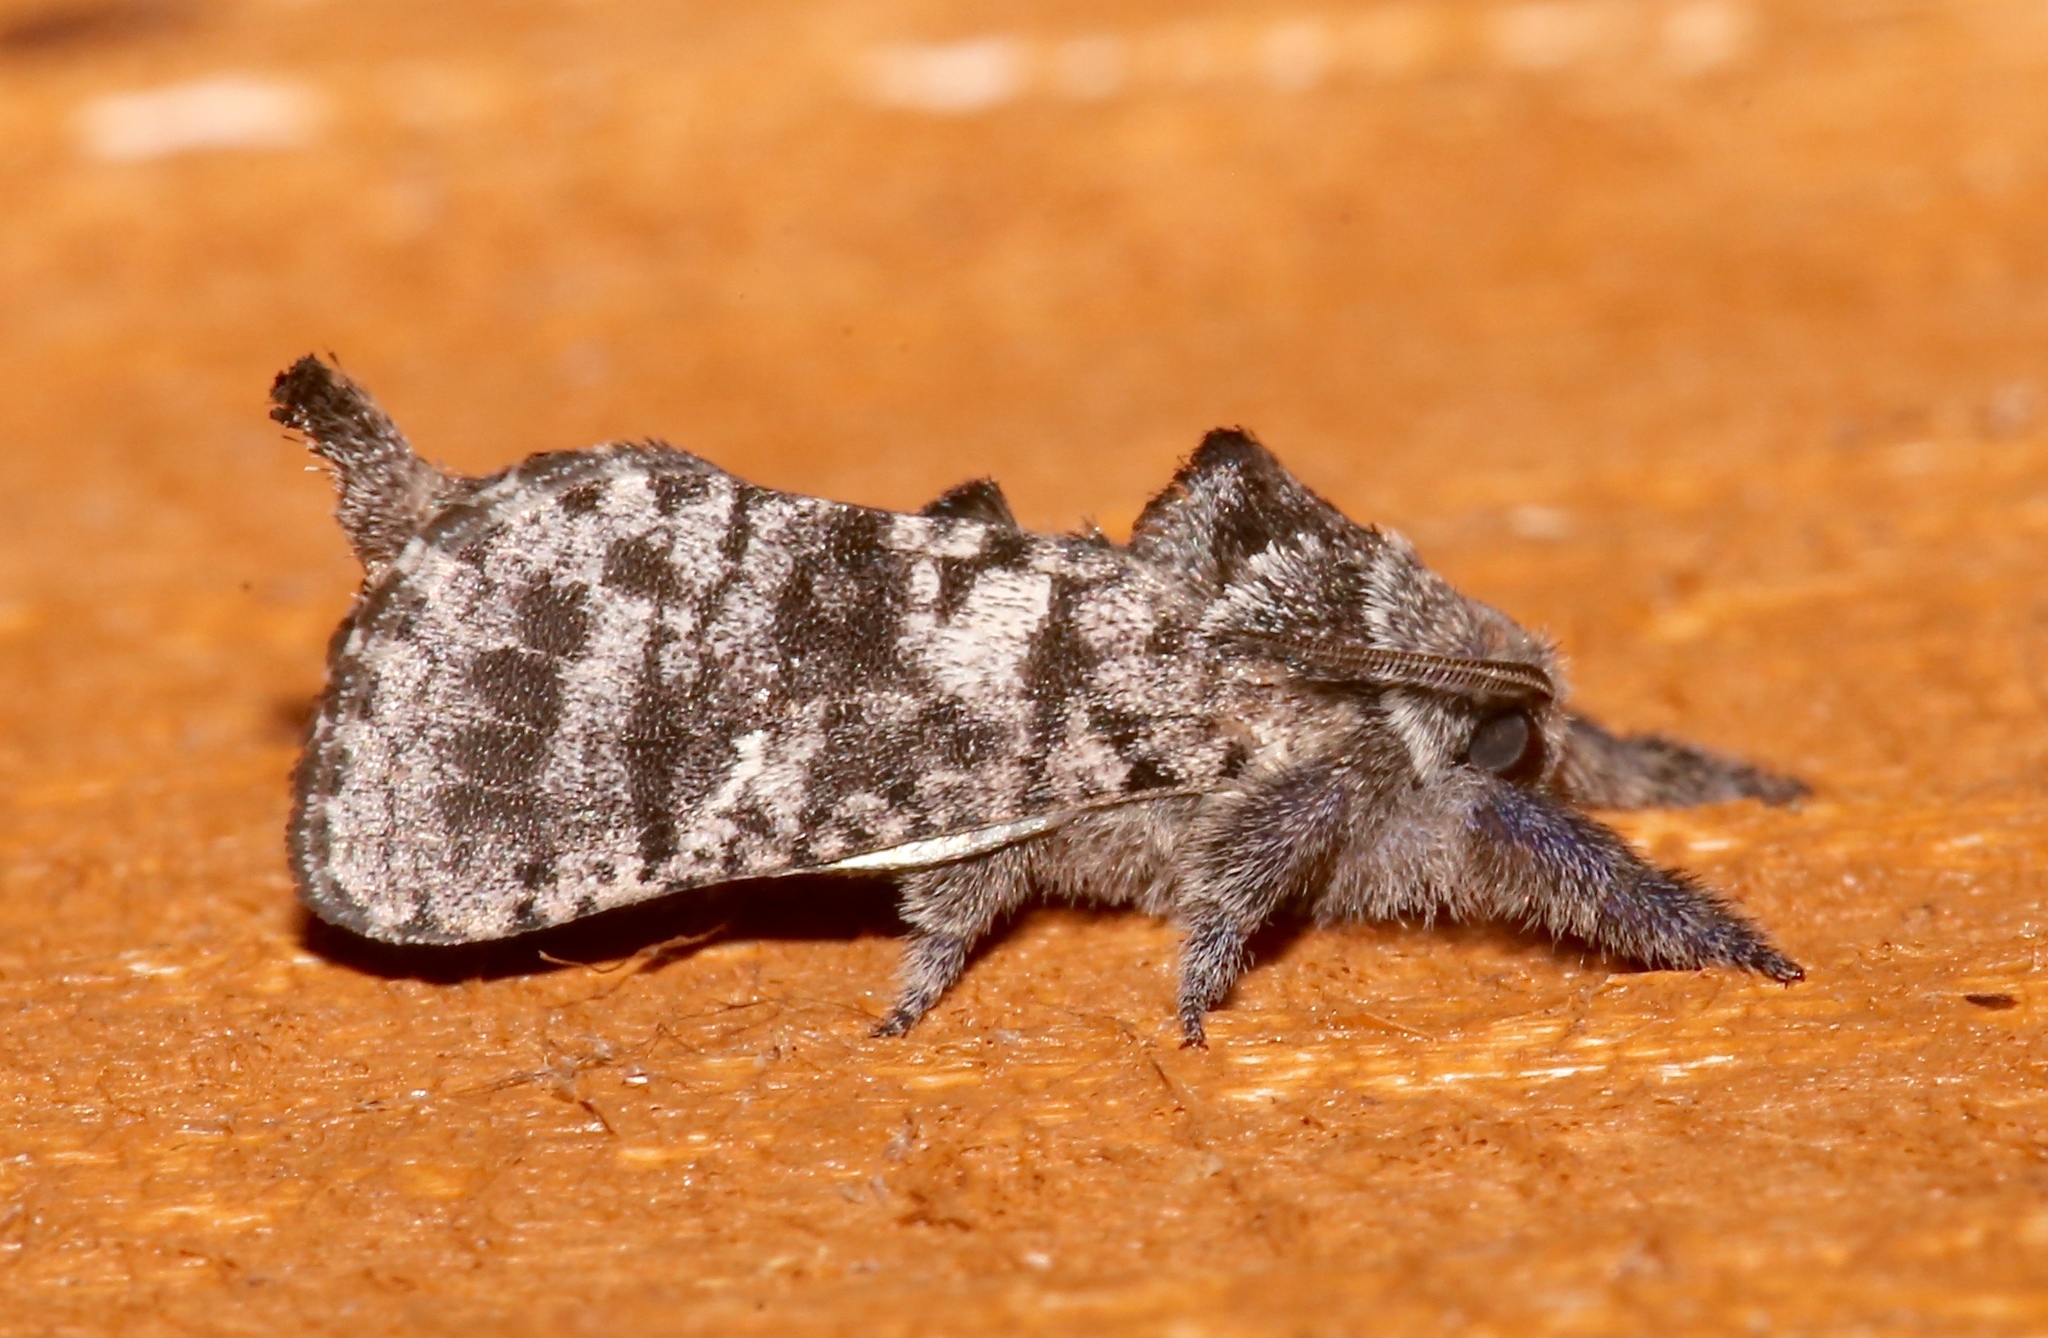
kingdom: Animalia
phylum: Arthropoda
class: Insecta
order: Lepidoptera
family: Cossidae
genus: Givira
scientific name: Givira francesca
